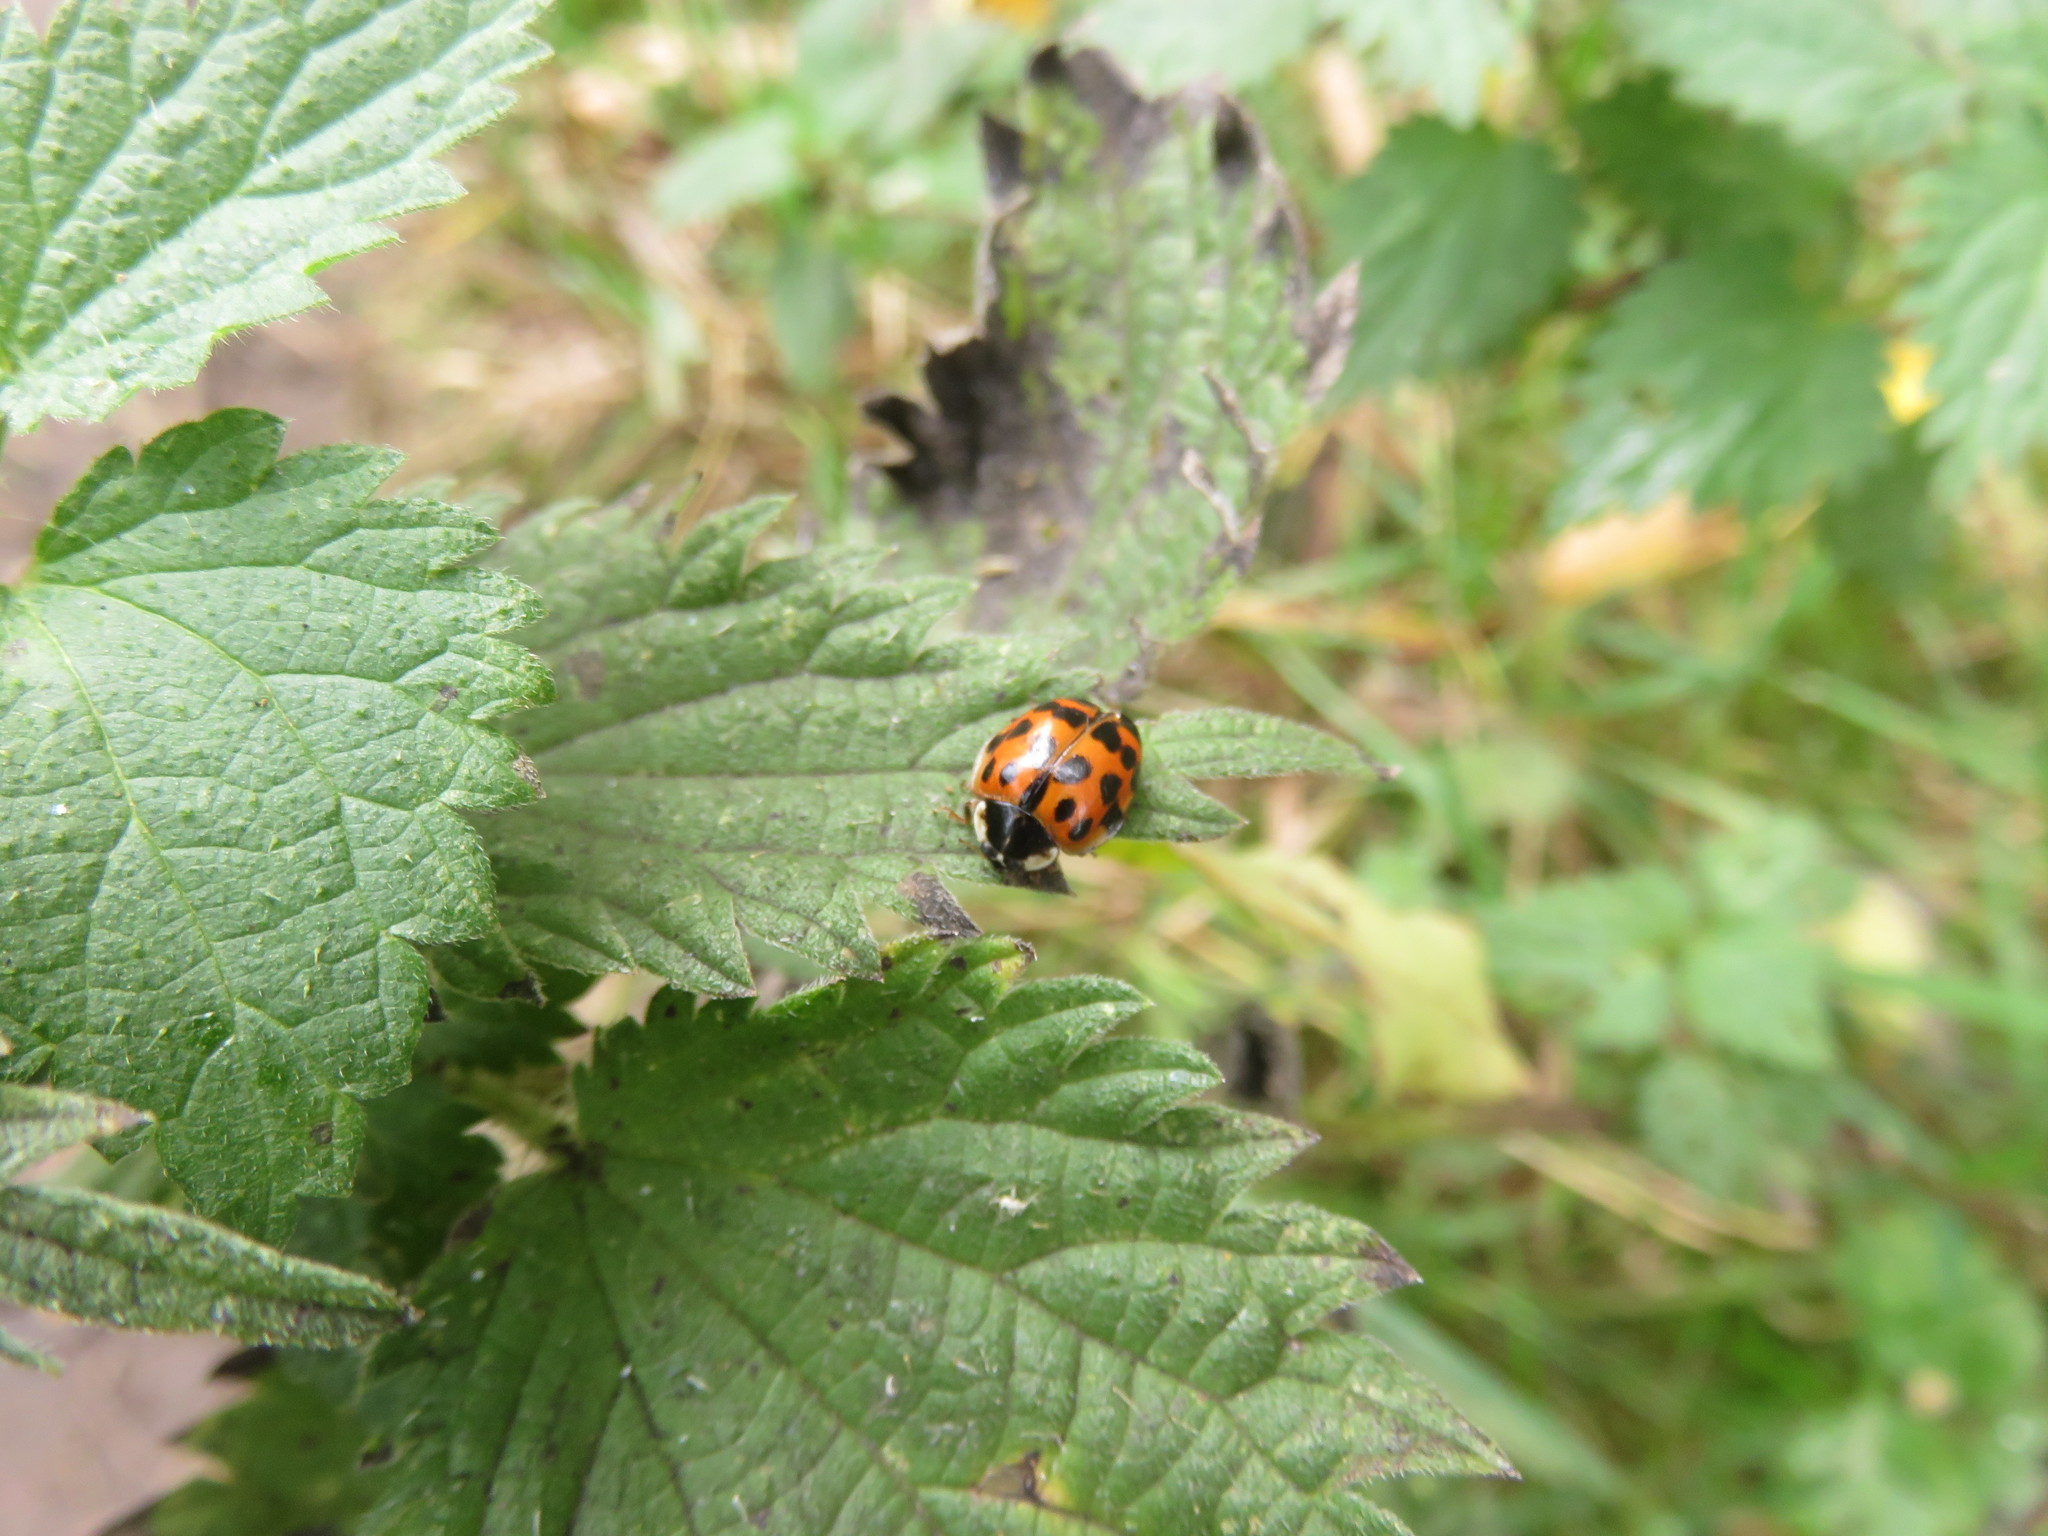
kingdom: Animalia
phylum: Arthropoda
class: Insecta
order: Coleoptera
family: Coccinellidae
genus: Harmonia
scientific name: Harmonia axyridis
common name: Harlequin ladybird
